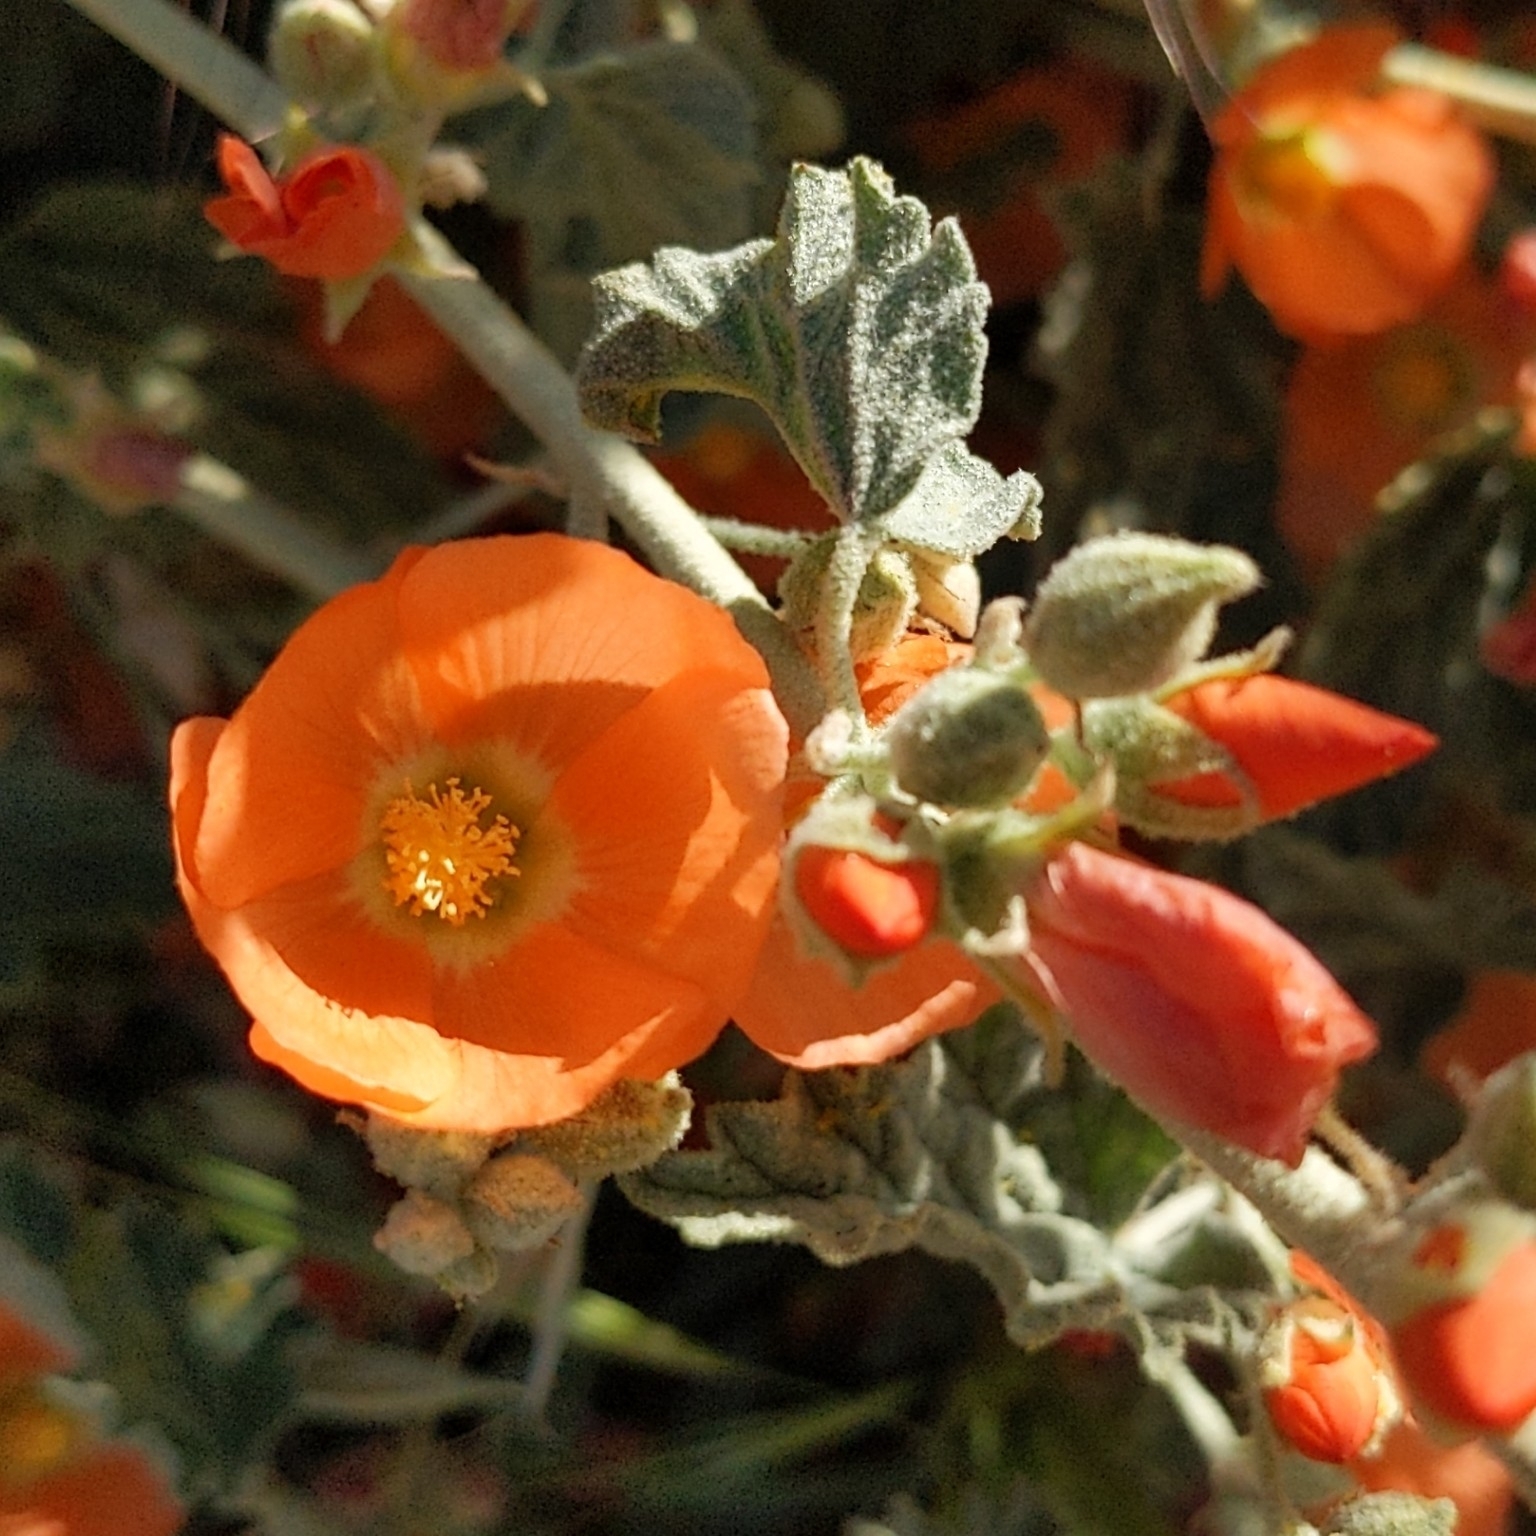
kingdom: Plantae
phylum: Tracheophyta
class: Magnoliopsida
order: Malvales
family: Malvaceae
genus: Sphaeralcea
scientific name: Sphaeralcea ambigua
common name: Apricot globe-mallow
